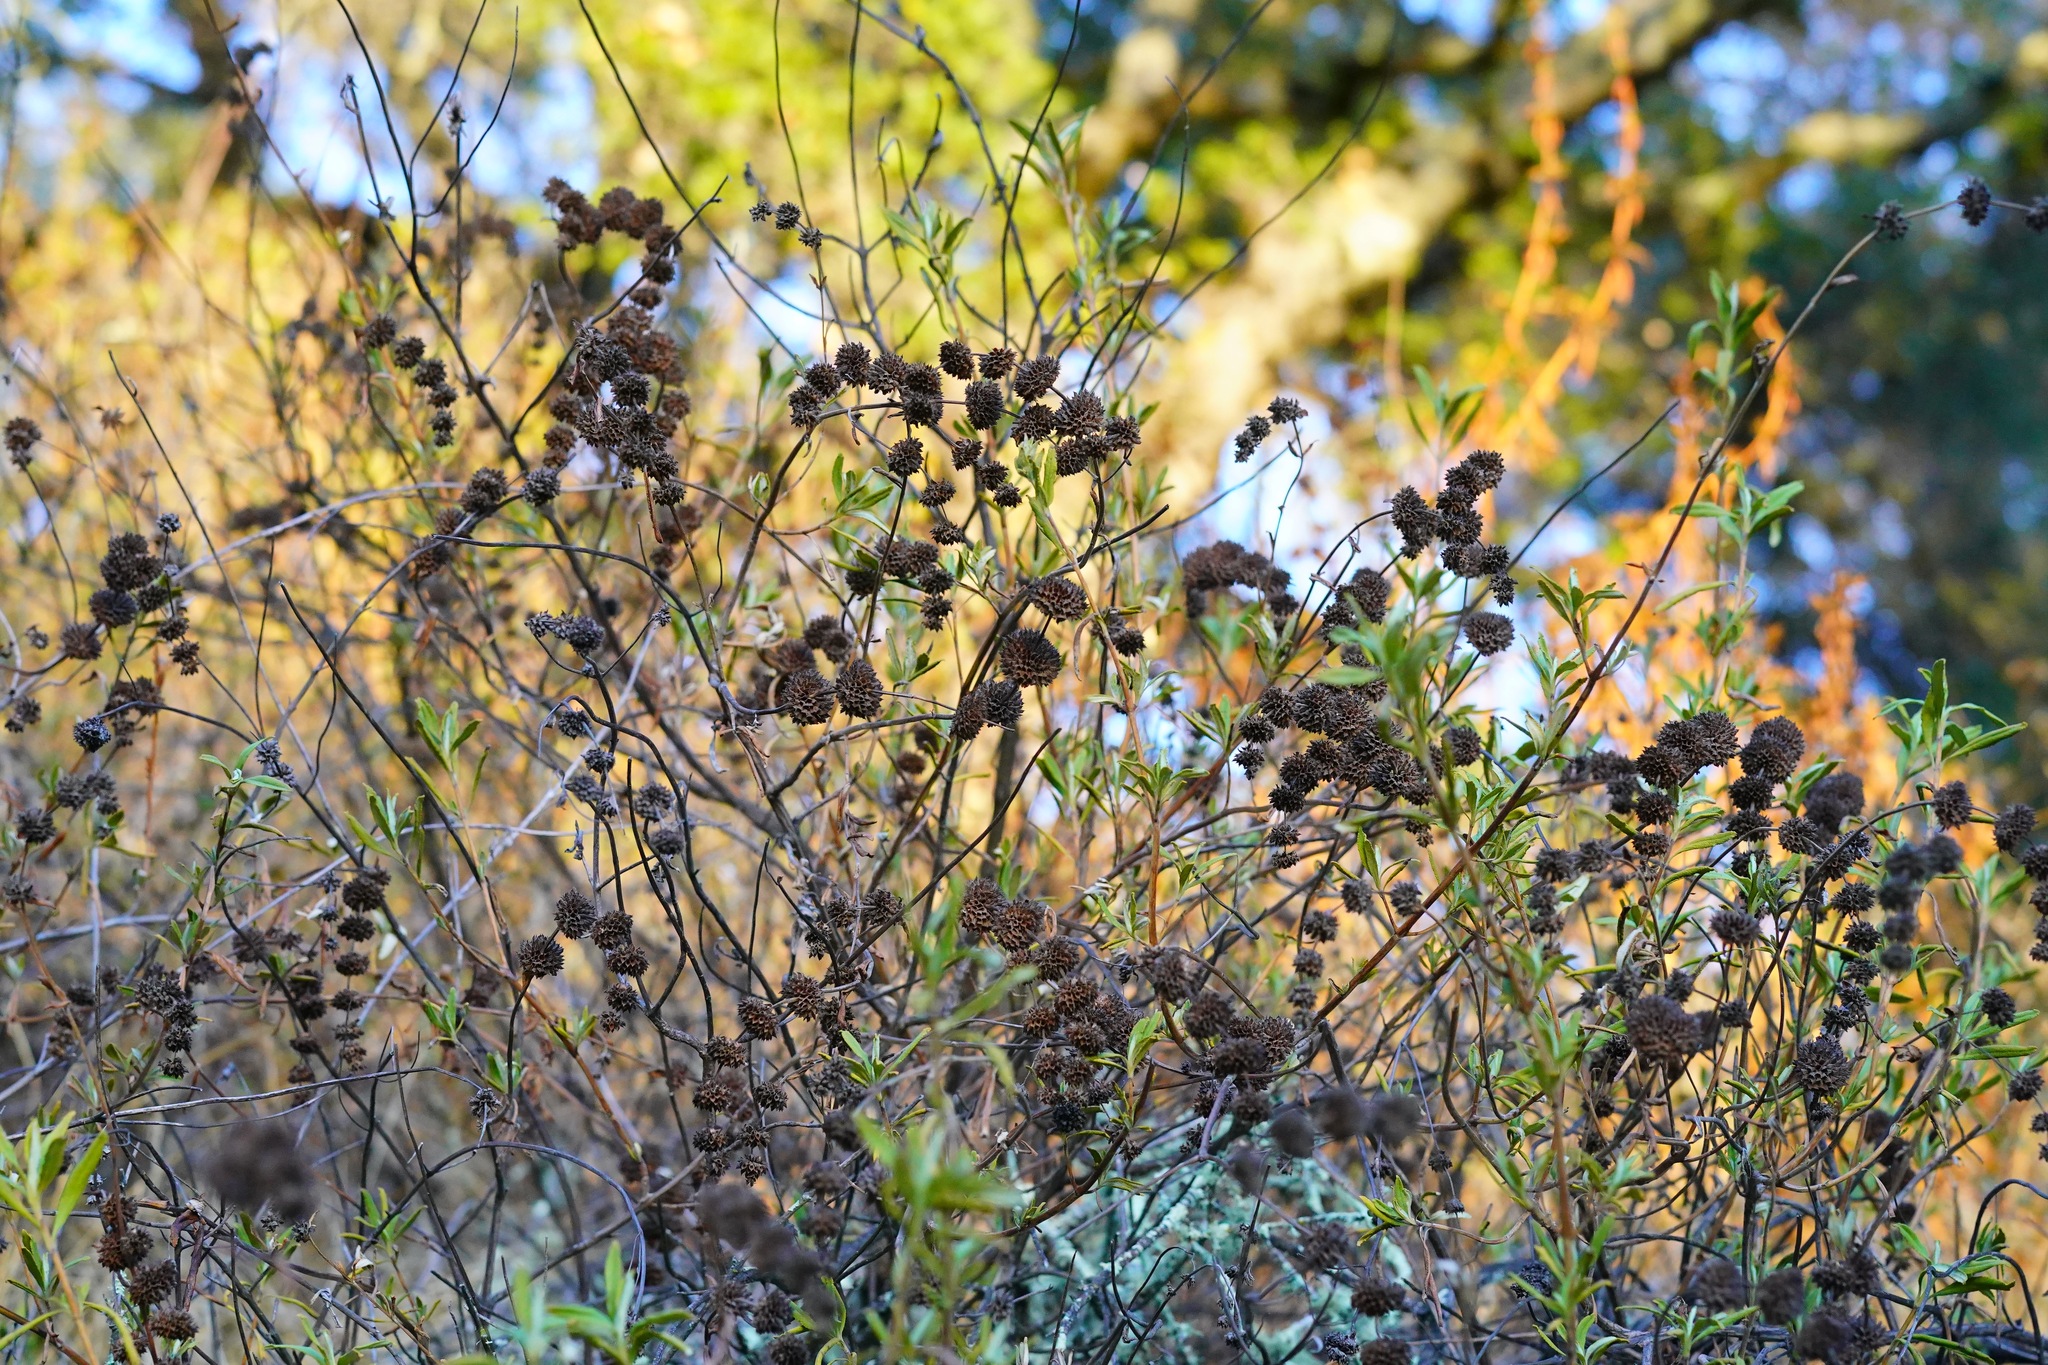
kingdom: Plantae
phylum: Tracheophyta
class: Magnoliopsida
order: Lamiales
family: Lamiaceae
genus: Salvia
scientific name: Salvia mellifera
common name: Black sage
